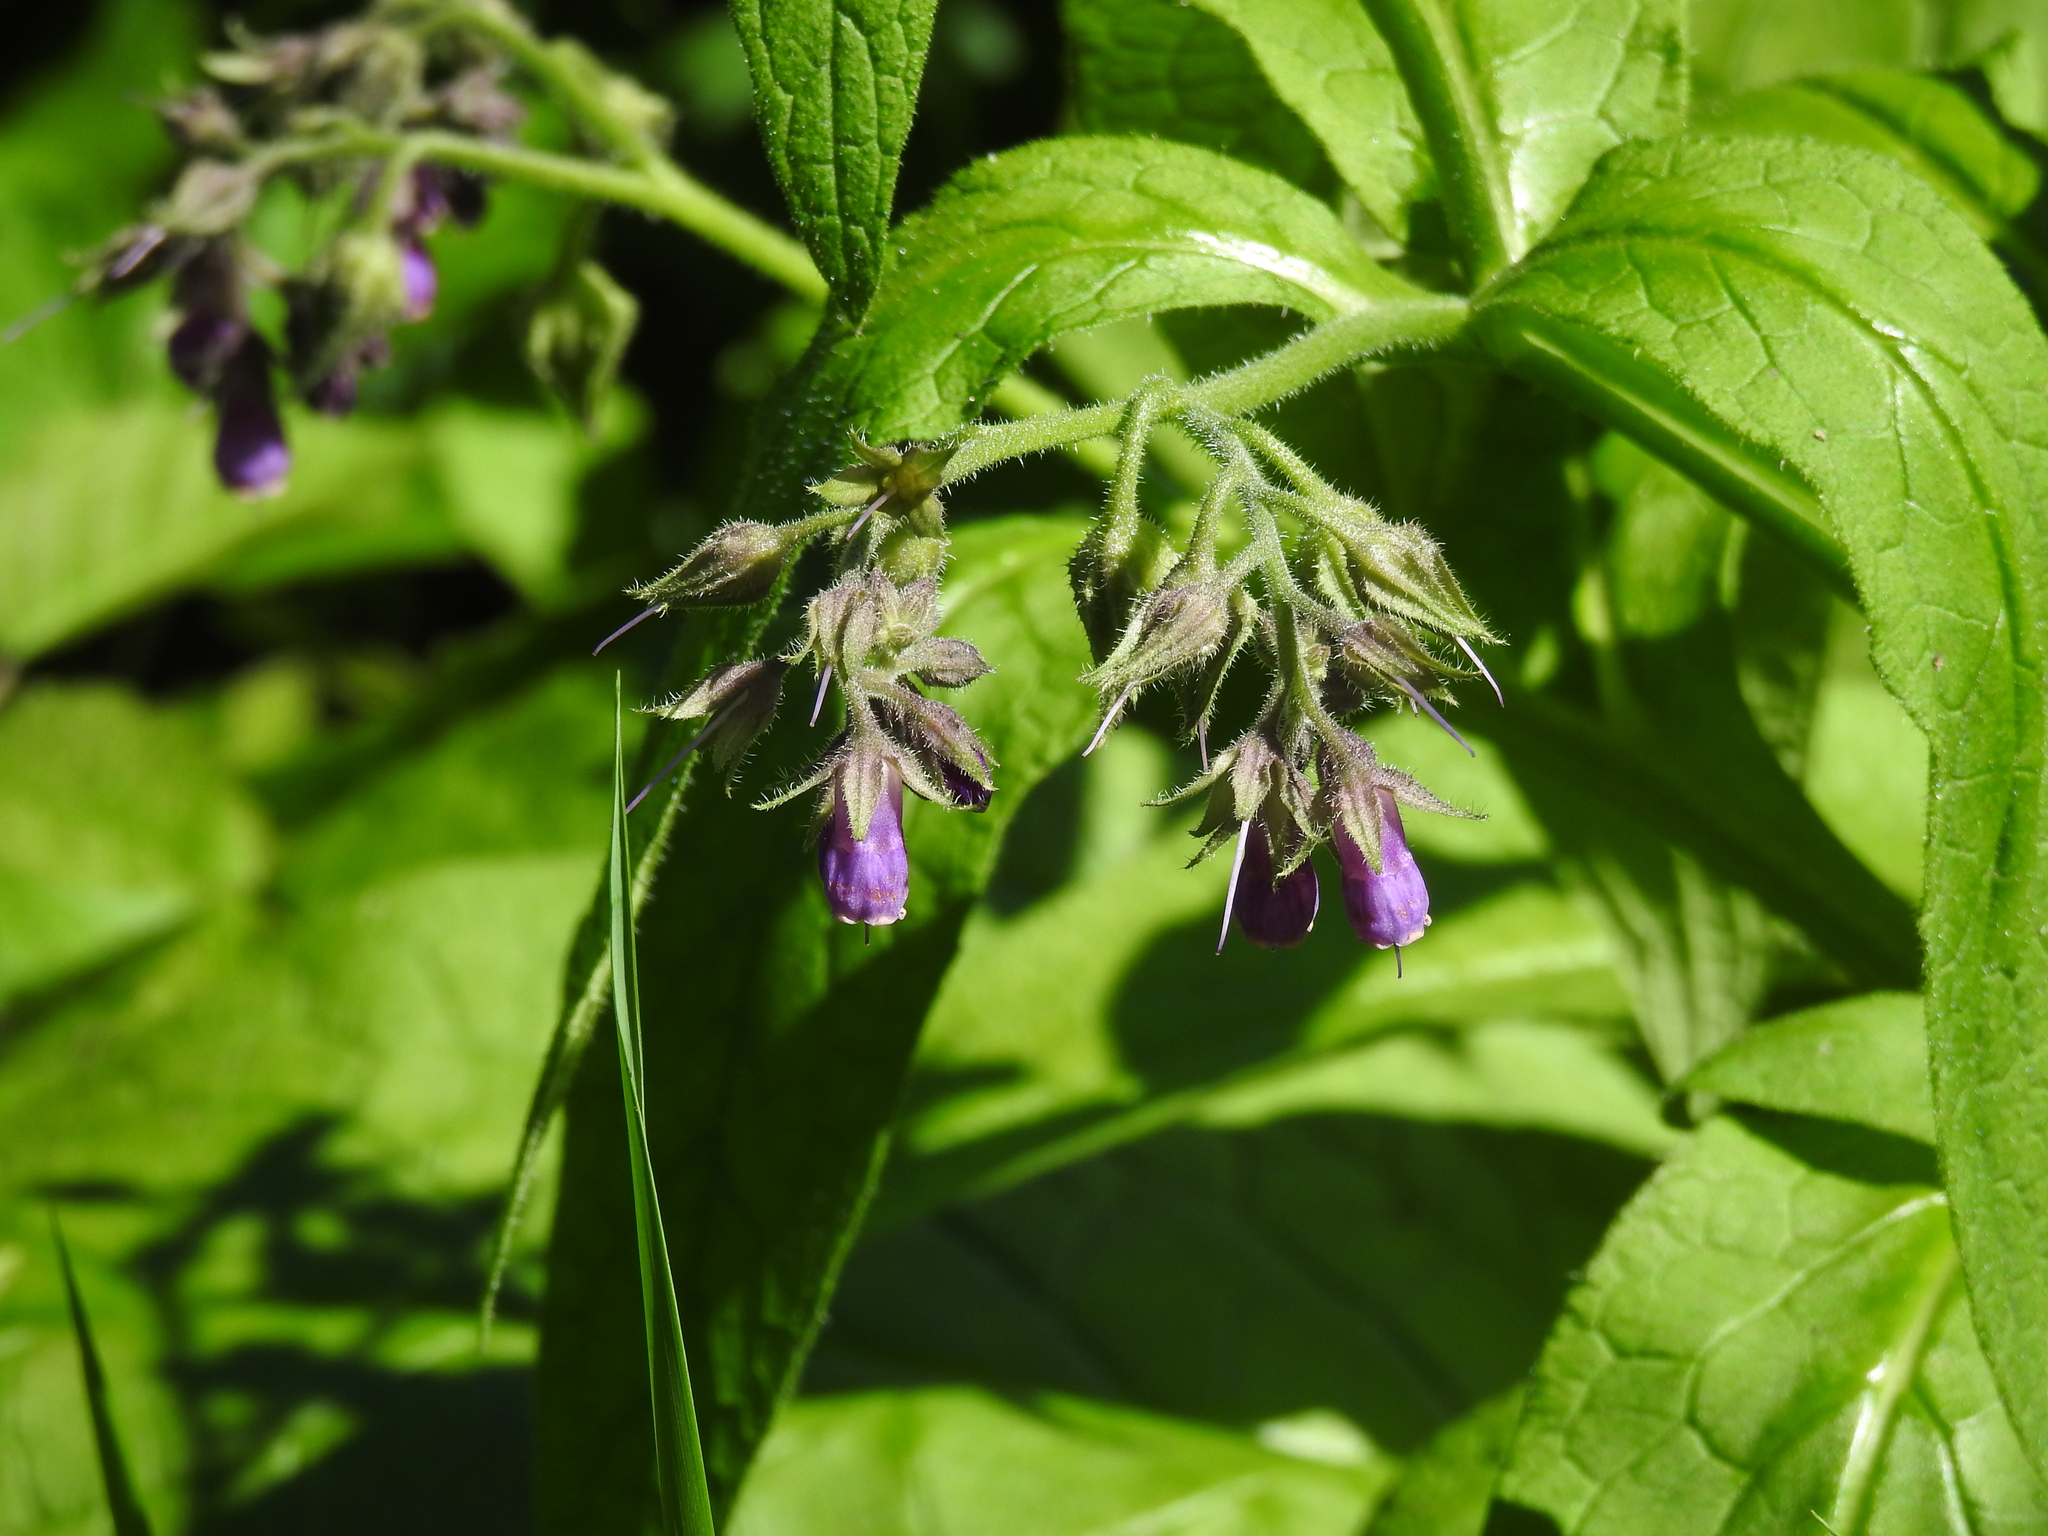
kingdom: Plantae
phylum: Tracheophyta
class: Magnoliopsida
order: Boraginales
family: Boraginaceae
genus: Symphytum
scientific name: Symphytum officinale
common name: Common comfrey
